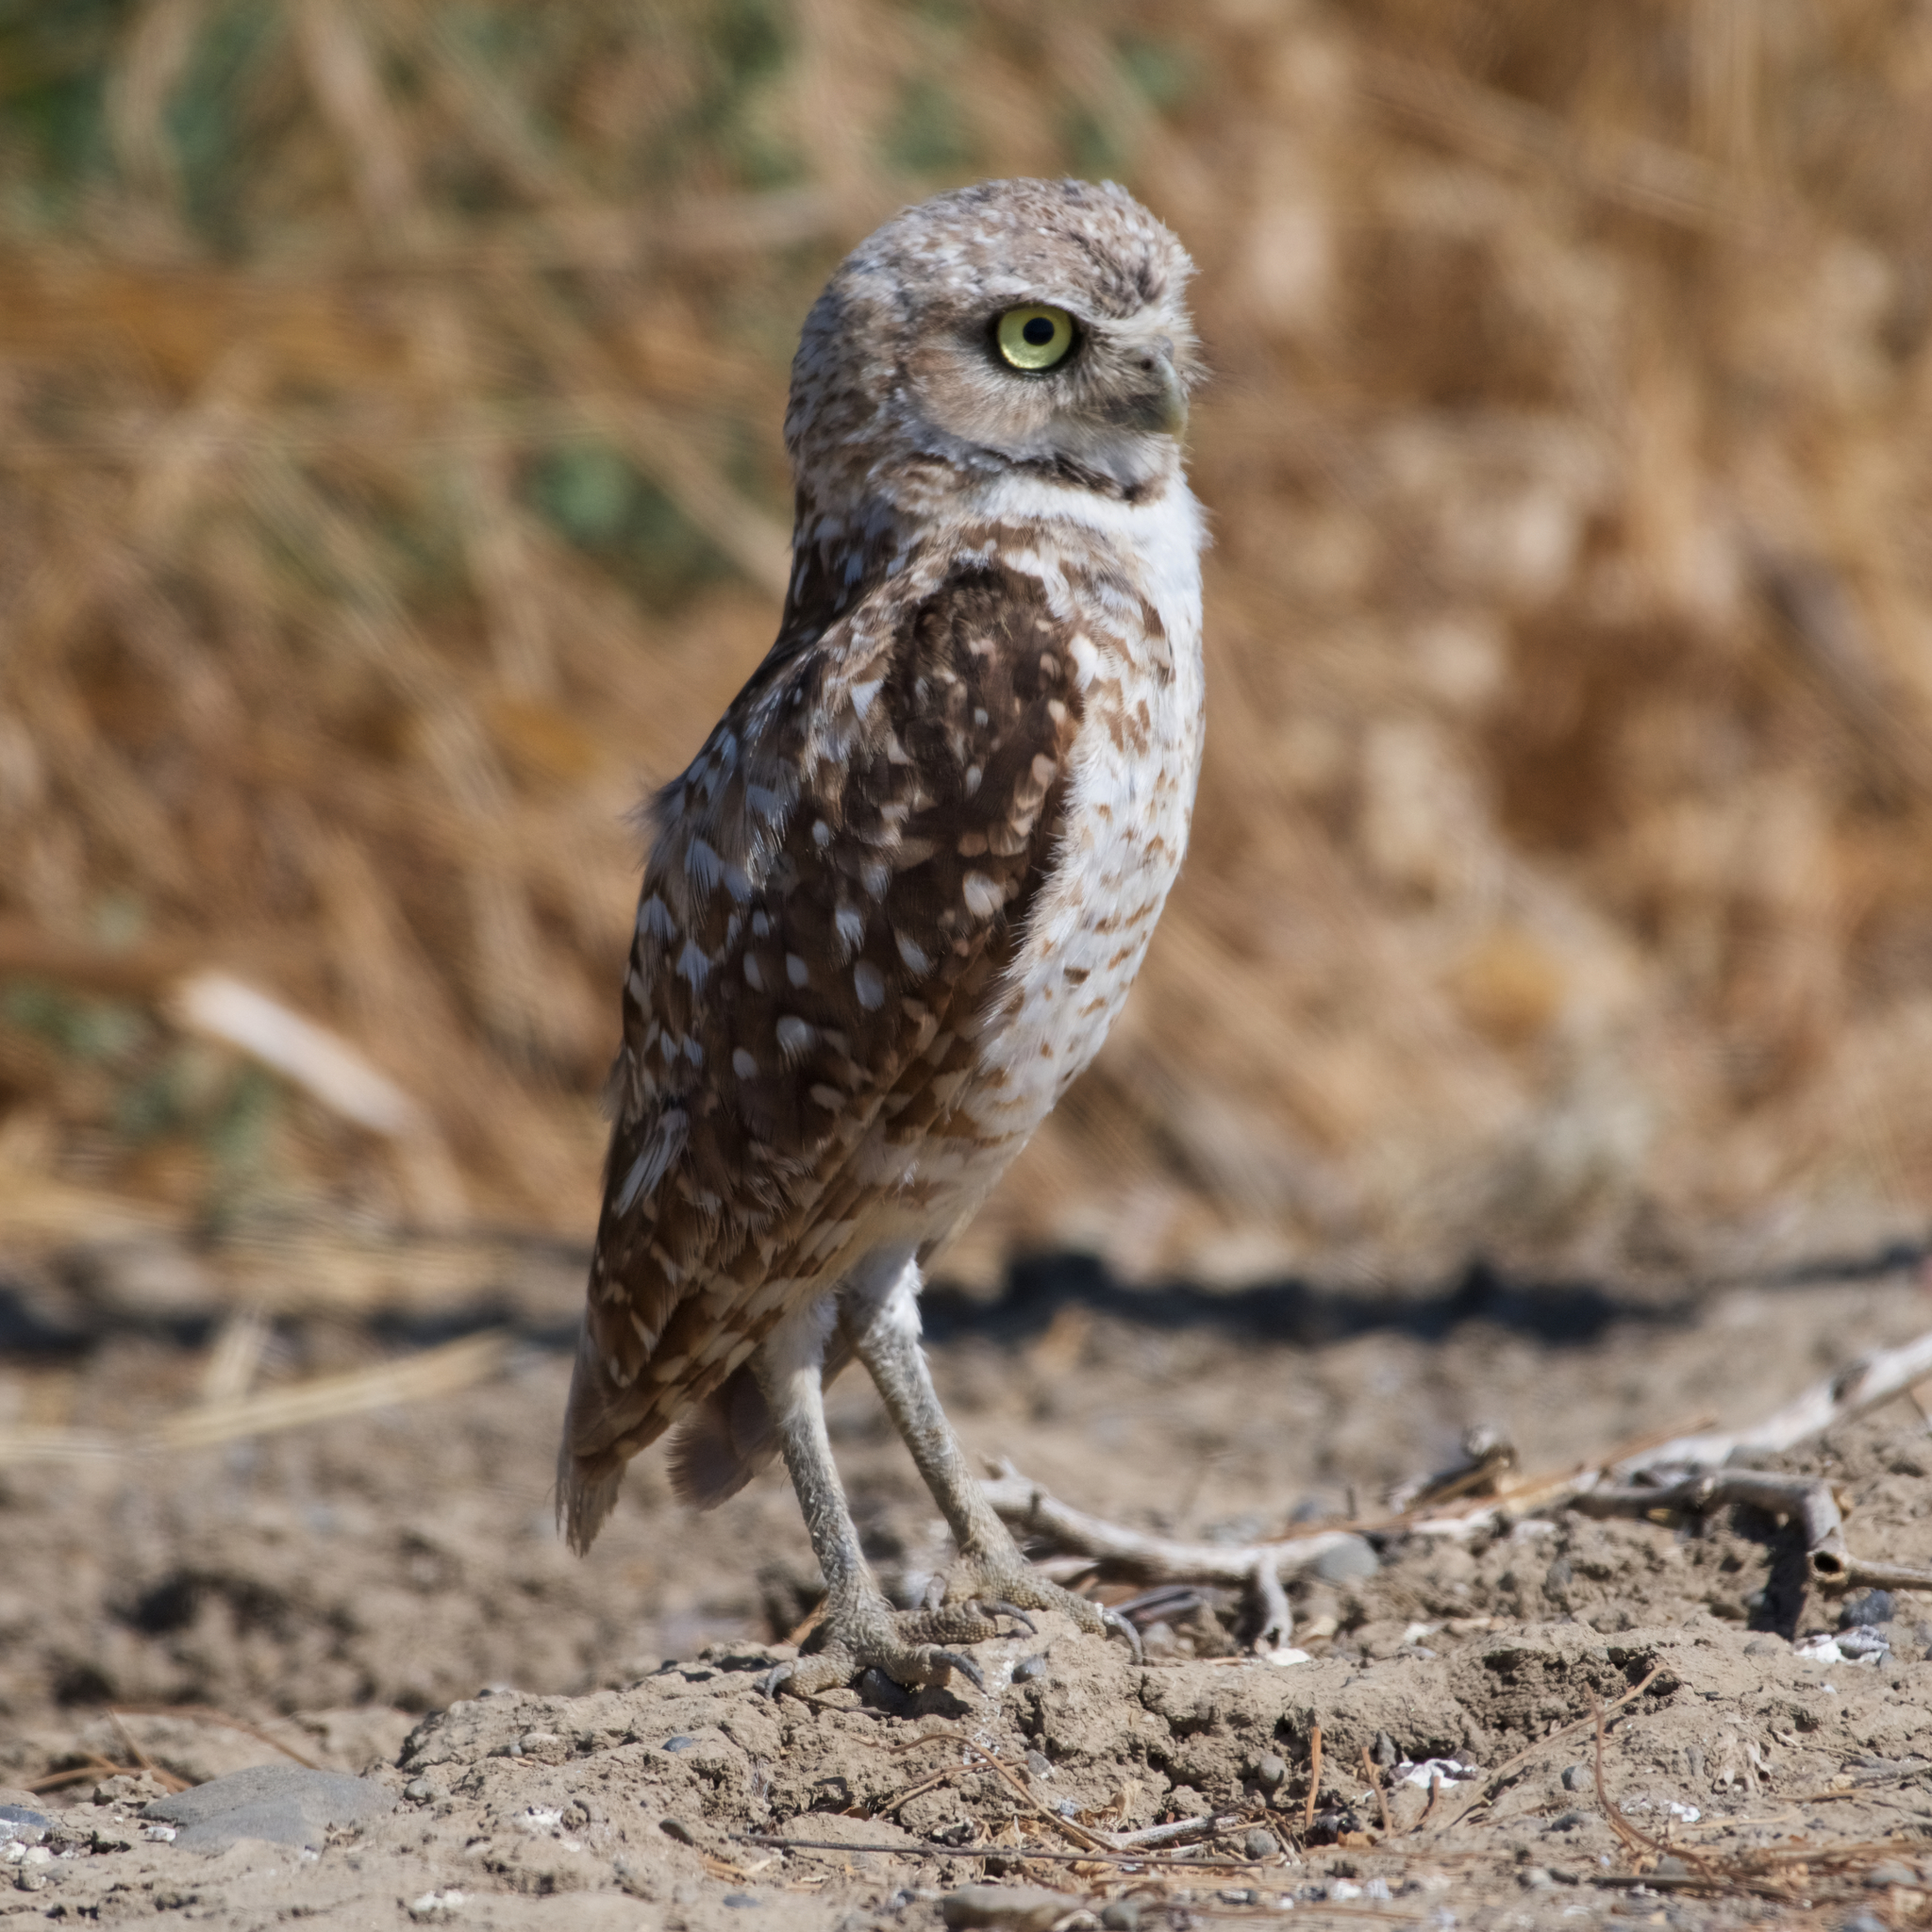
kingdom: Animalia
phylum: Chordata
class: Aves
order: Strigiformes
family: Strigidae
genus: Athene
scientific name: Athene cunicularia
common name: Burrowing owl
